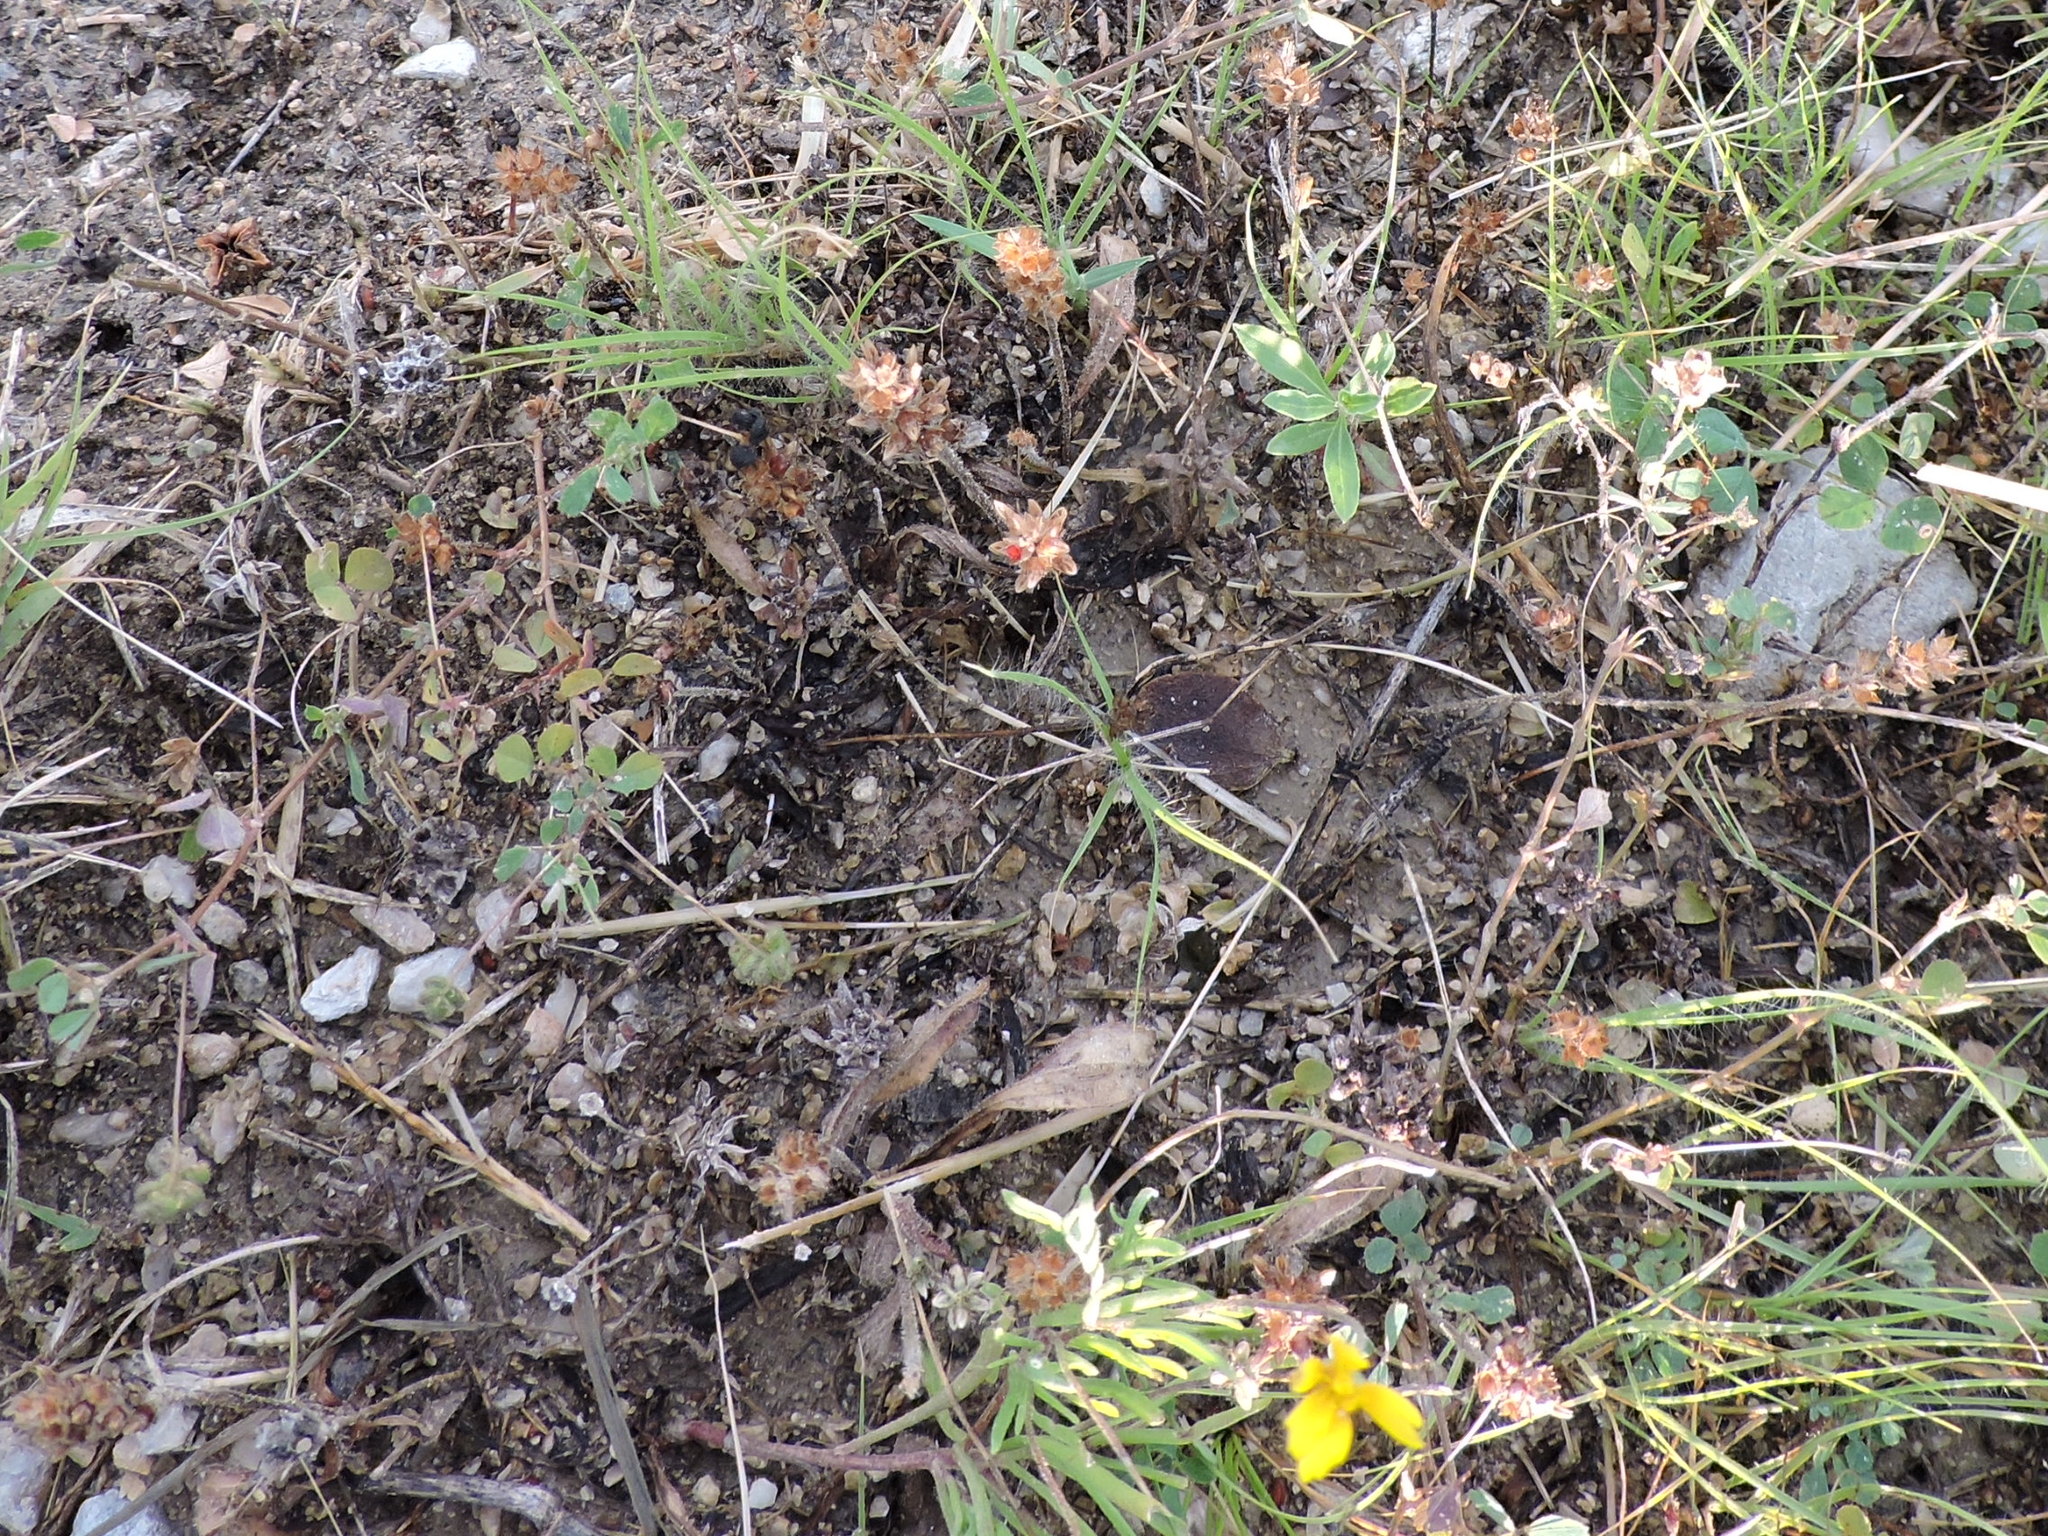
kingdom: Plantae
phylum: Tracheophyta
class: Magnoliopsida
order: Fabales
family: Fabaceae
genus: Medicago
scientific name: Medicago lupulina
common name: Black medick
